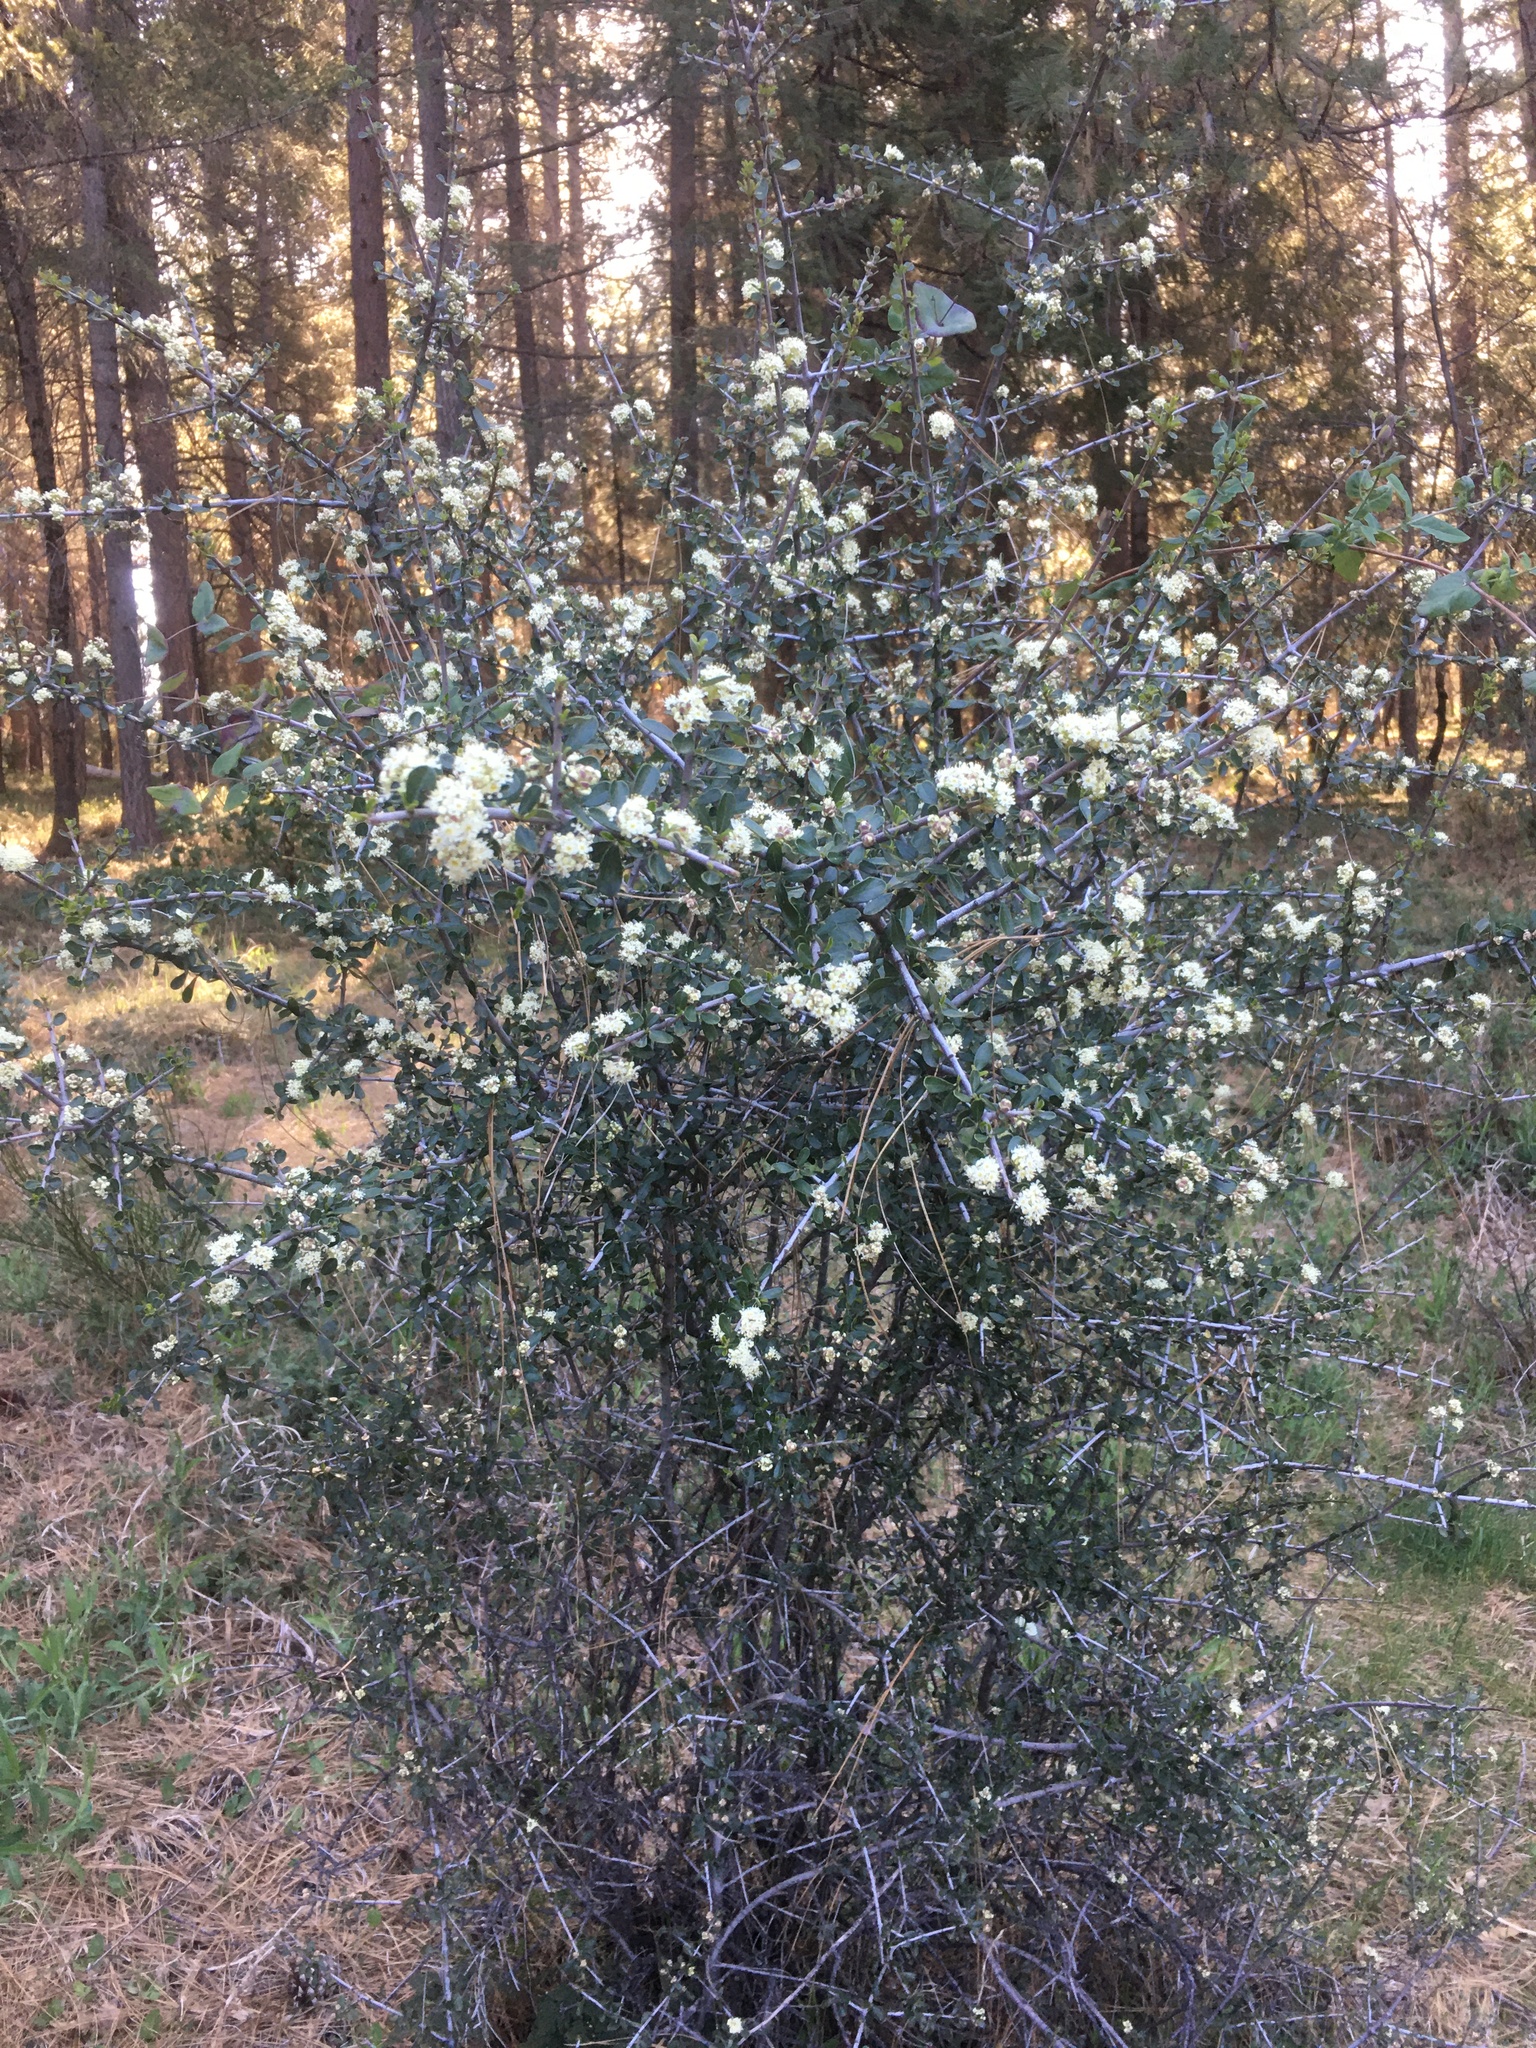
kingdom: Plantae
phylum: Tracheophyta
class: Magnoliopsida
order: Rosales
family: Rhamnaceae
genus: Ceanothus
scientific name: Ceanothus cuneatus
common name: Cuneate ceanothus
